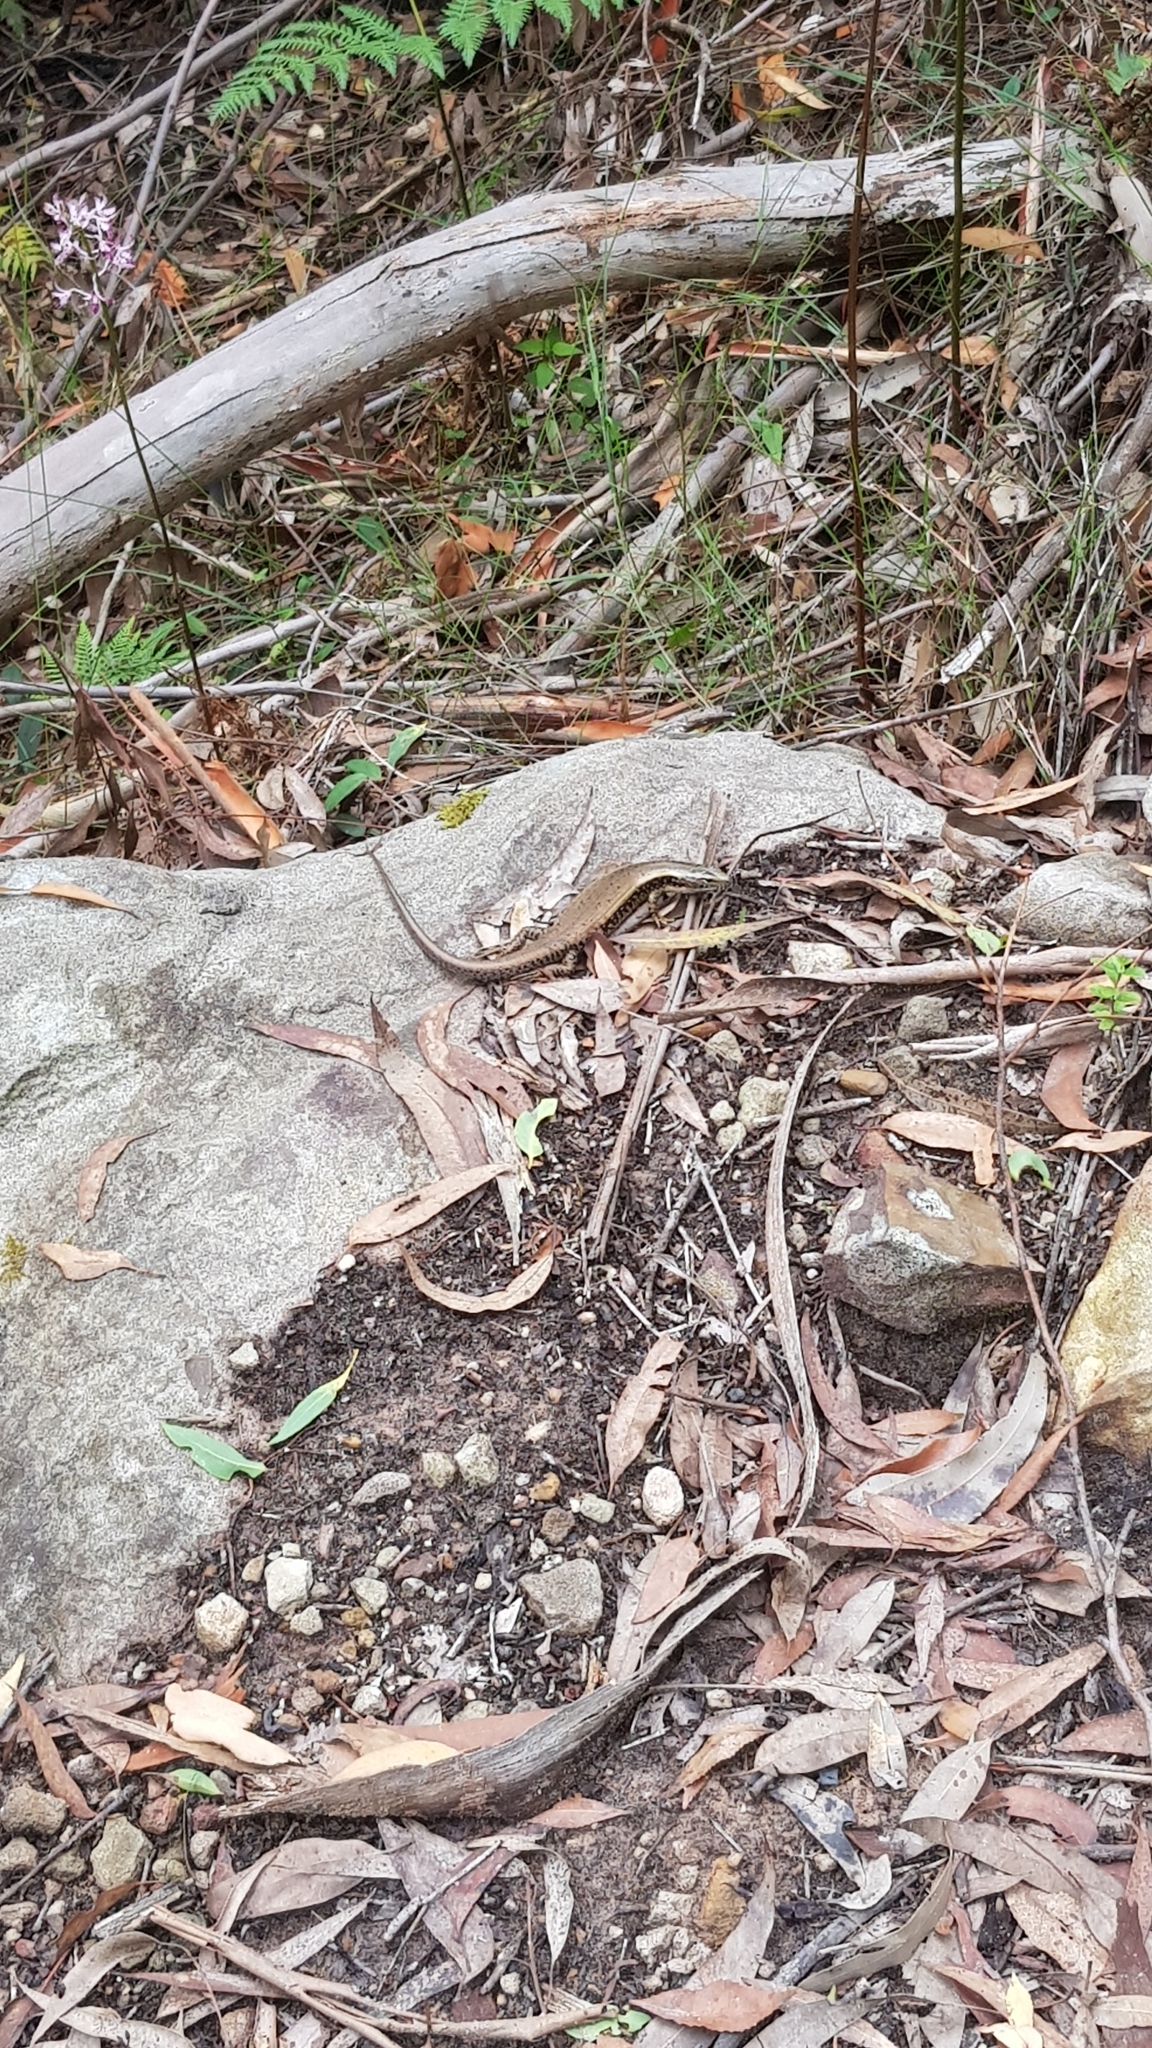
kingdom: Animalia
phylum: Chordata
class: Squamata
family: Scincidae
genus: Eulamprus
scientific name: Eulamprus quoyii
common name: Eastern water skink
